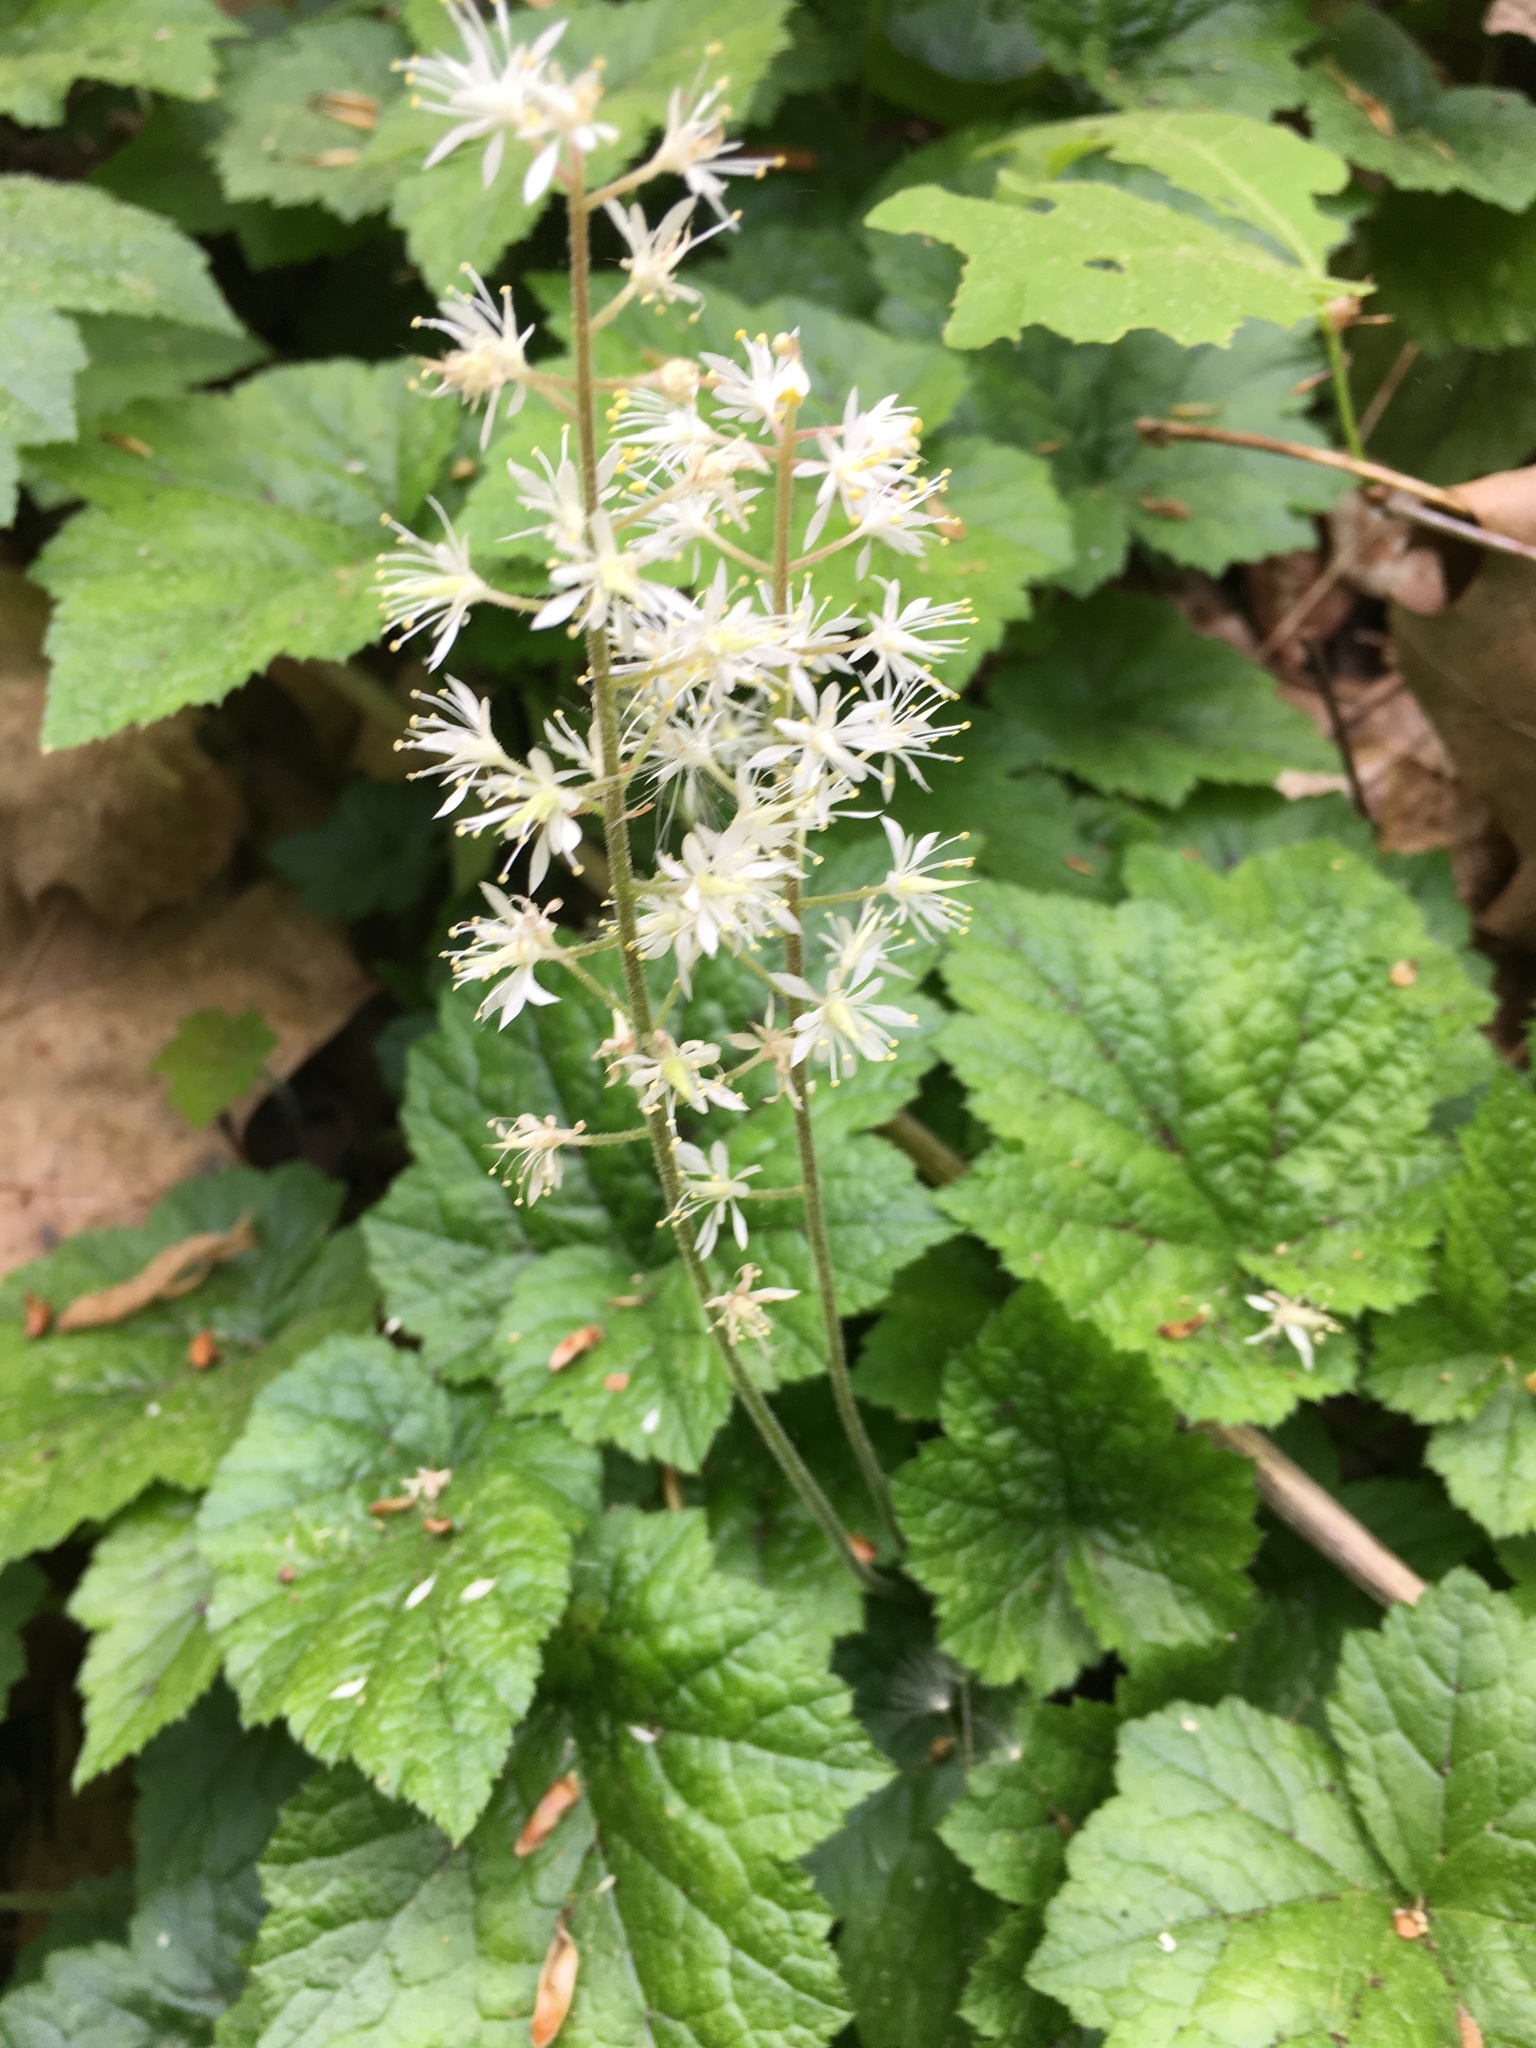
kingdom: Plantae
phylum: Tracheophyta
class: Magnoliopsida
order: Saxifragales
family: Saxifragaceae
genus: Tiarella
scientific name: Tiarella stolonifera
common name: Stoloniferous foamflower
